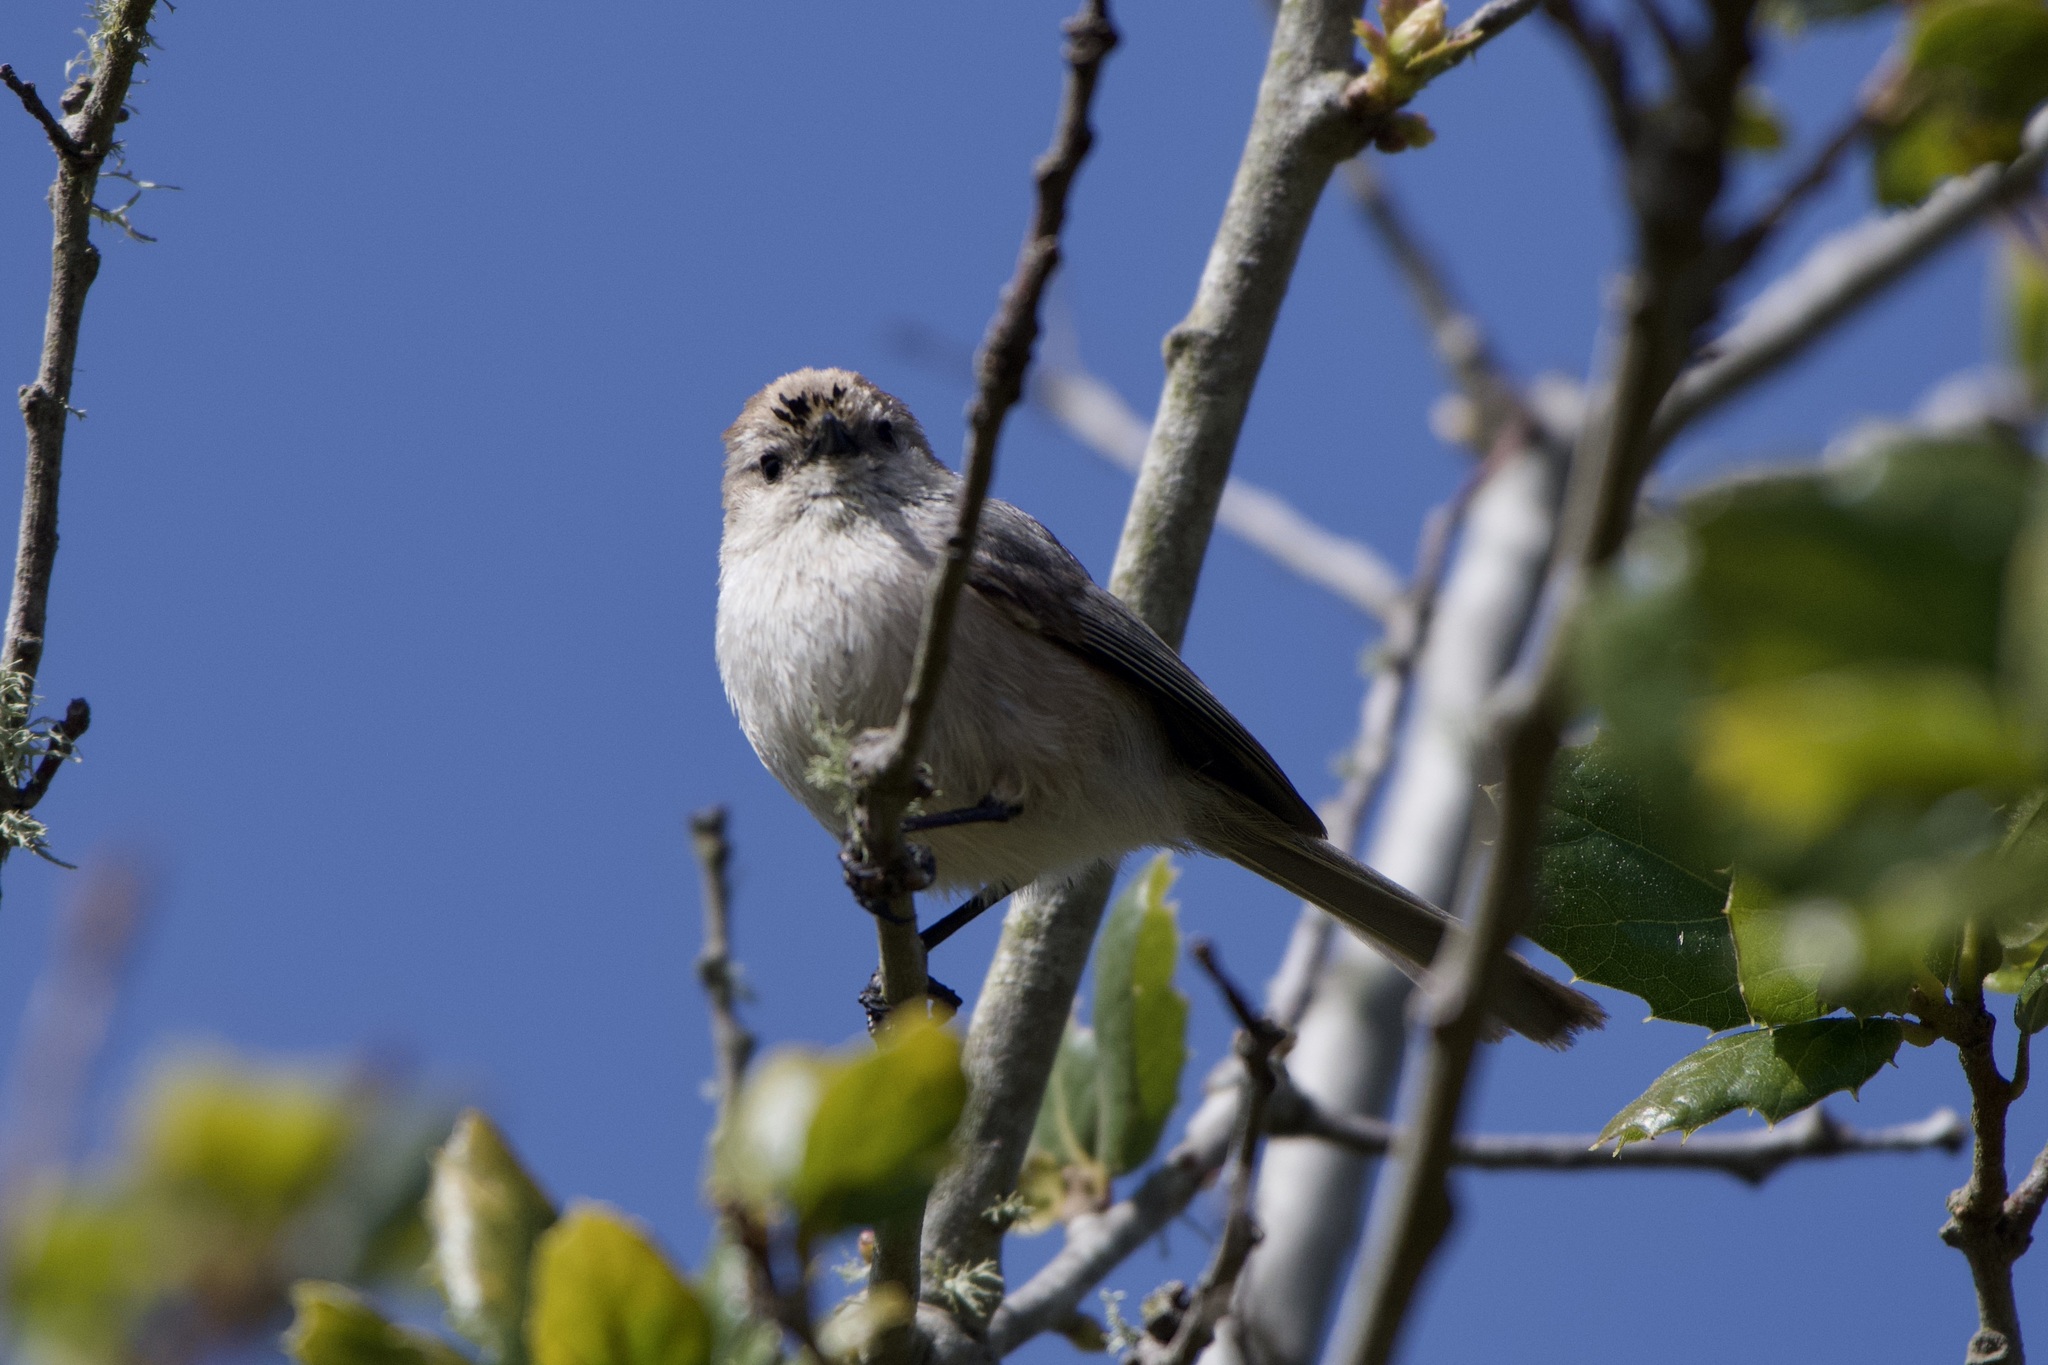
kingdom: Animalia
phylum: Chordata
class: Aves
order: Passeriformes
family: Aegithalidae
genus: Psaltriparus
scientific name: Psaltriparus minimus
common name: American bushtit
